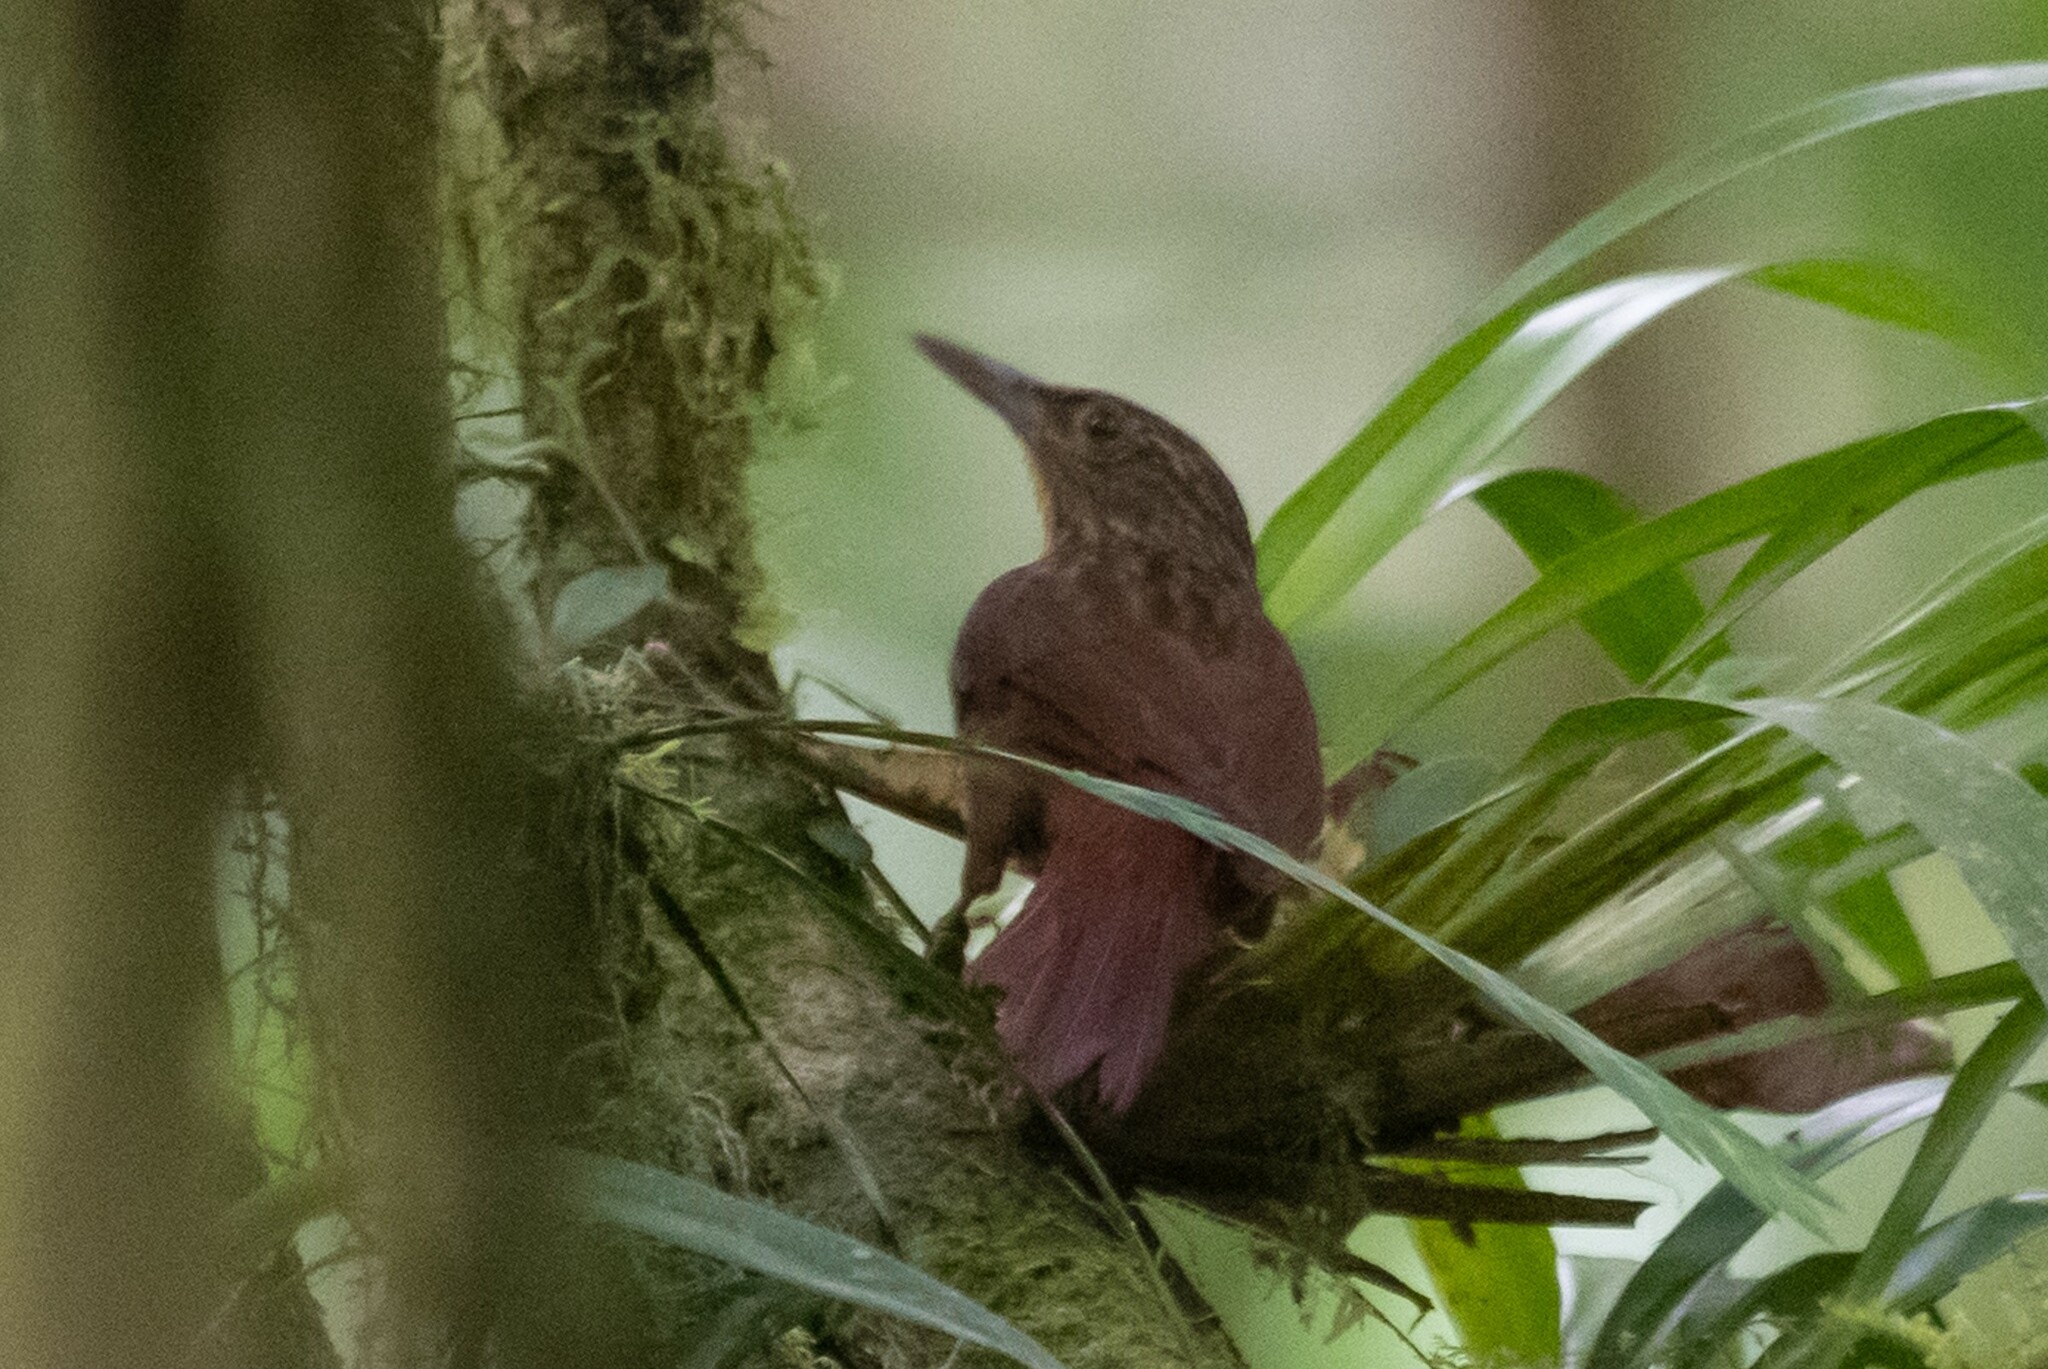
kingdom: Animalia
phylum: Chordata
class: Aves
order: Passeriformes
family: Furnariidae
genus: Hyloctistes
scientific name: Hyloctistes subulatus
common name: Eastern woodhaunter
